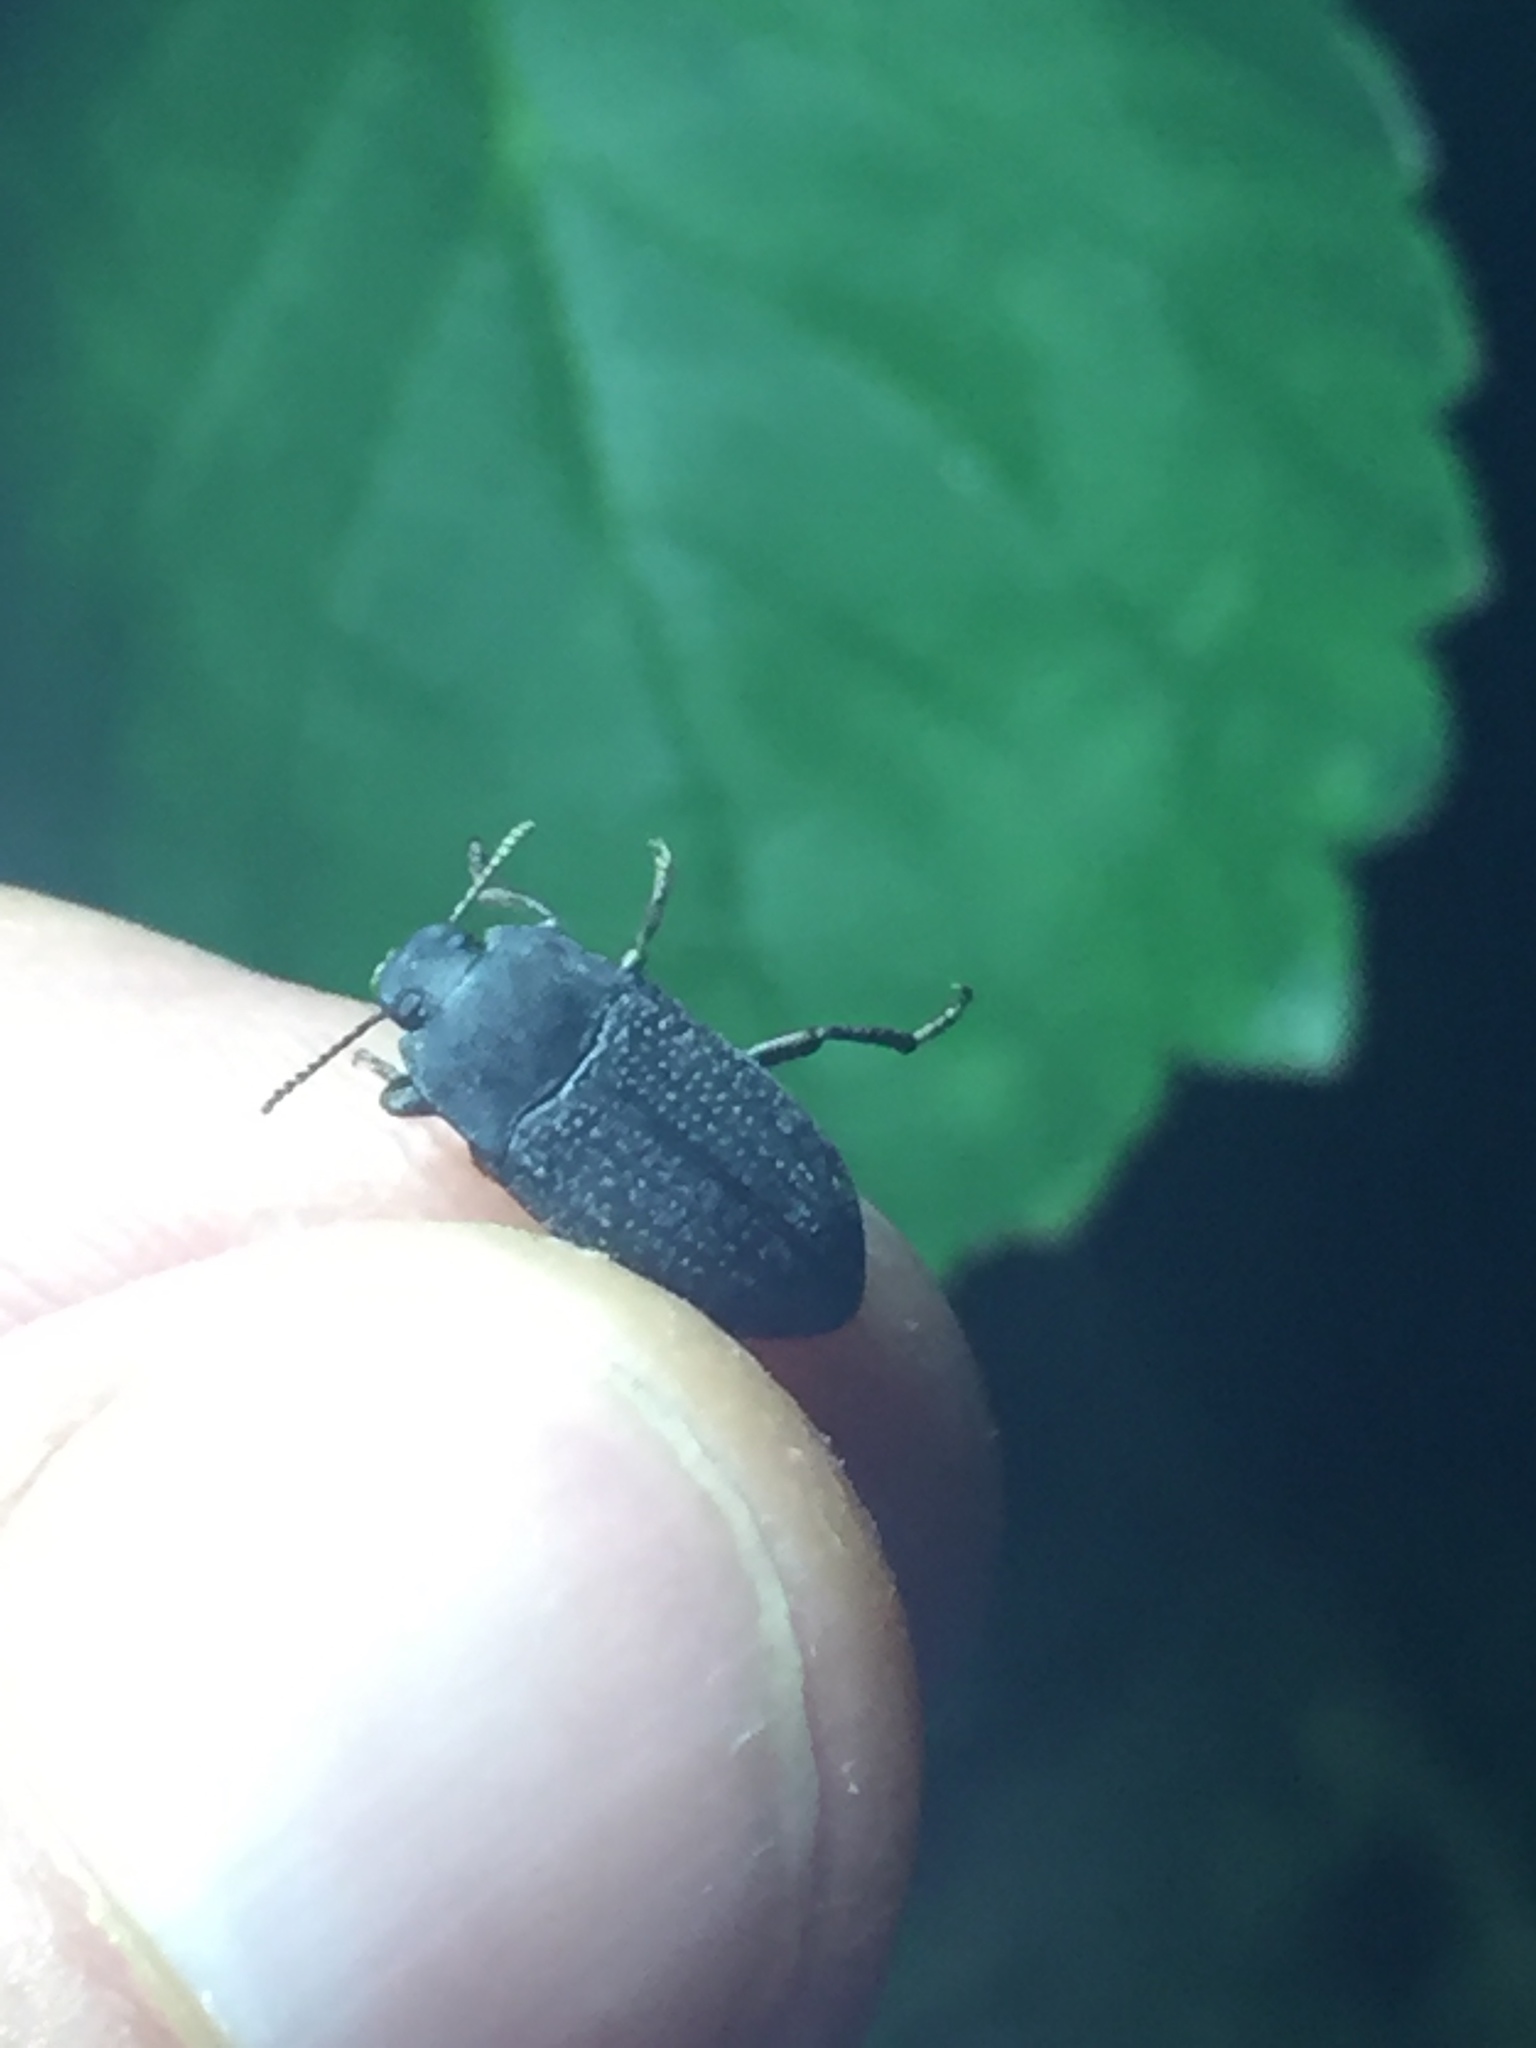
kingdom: Animalia
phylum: Arthropoda
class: Insecta
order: Coleoptera
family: Tenebrionidae
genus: Asiopus
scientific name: Asiopus
